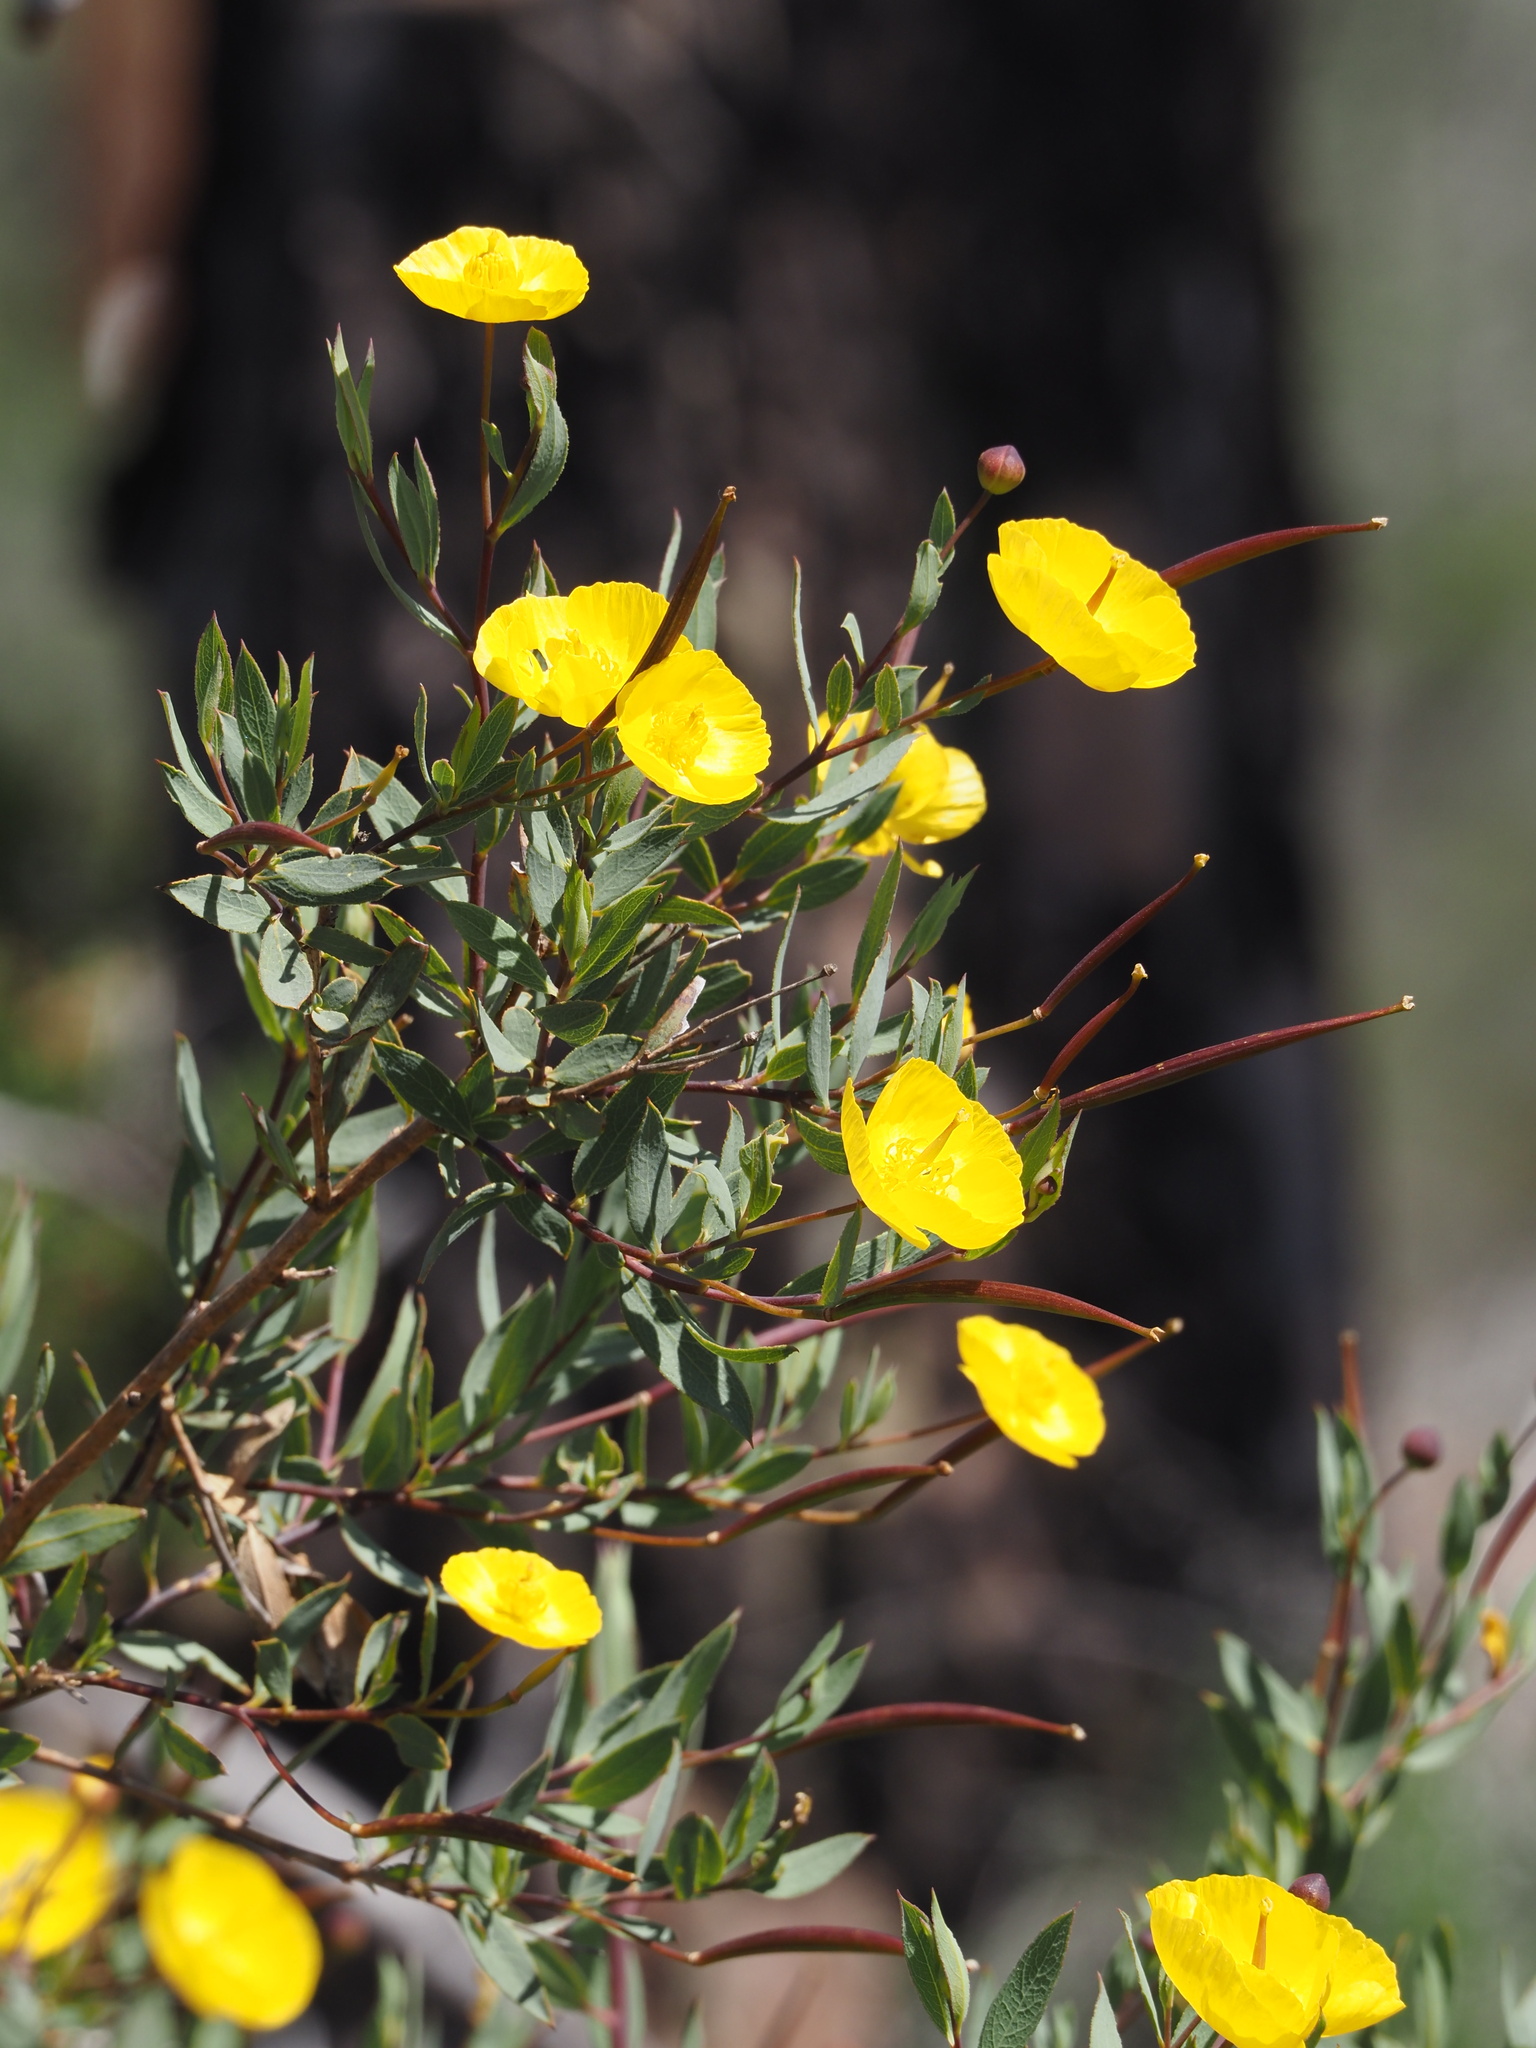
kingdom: Plantae
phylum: Tracheophyta
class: Magnoliopsida
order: Ranunculales
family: Papaveraceae
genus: Dendromecon
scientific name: Dendromecon rigida
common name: Tree poppy
